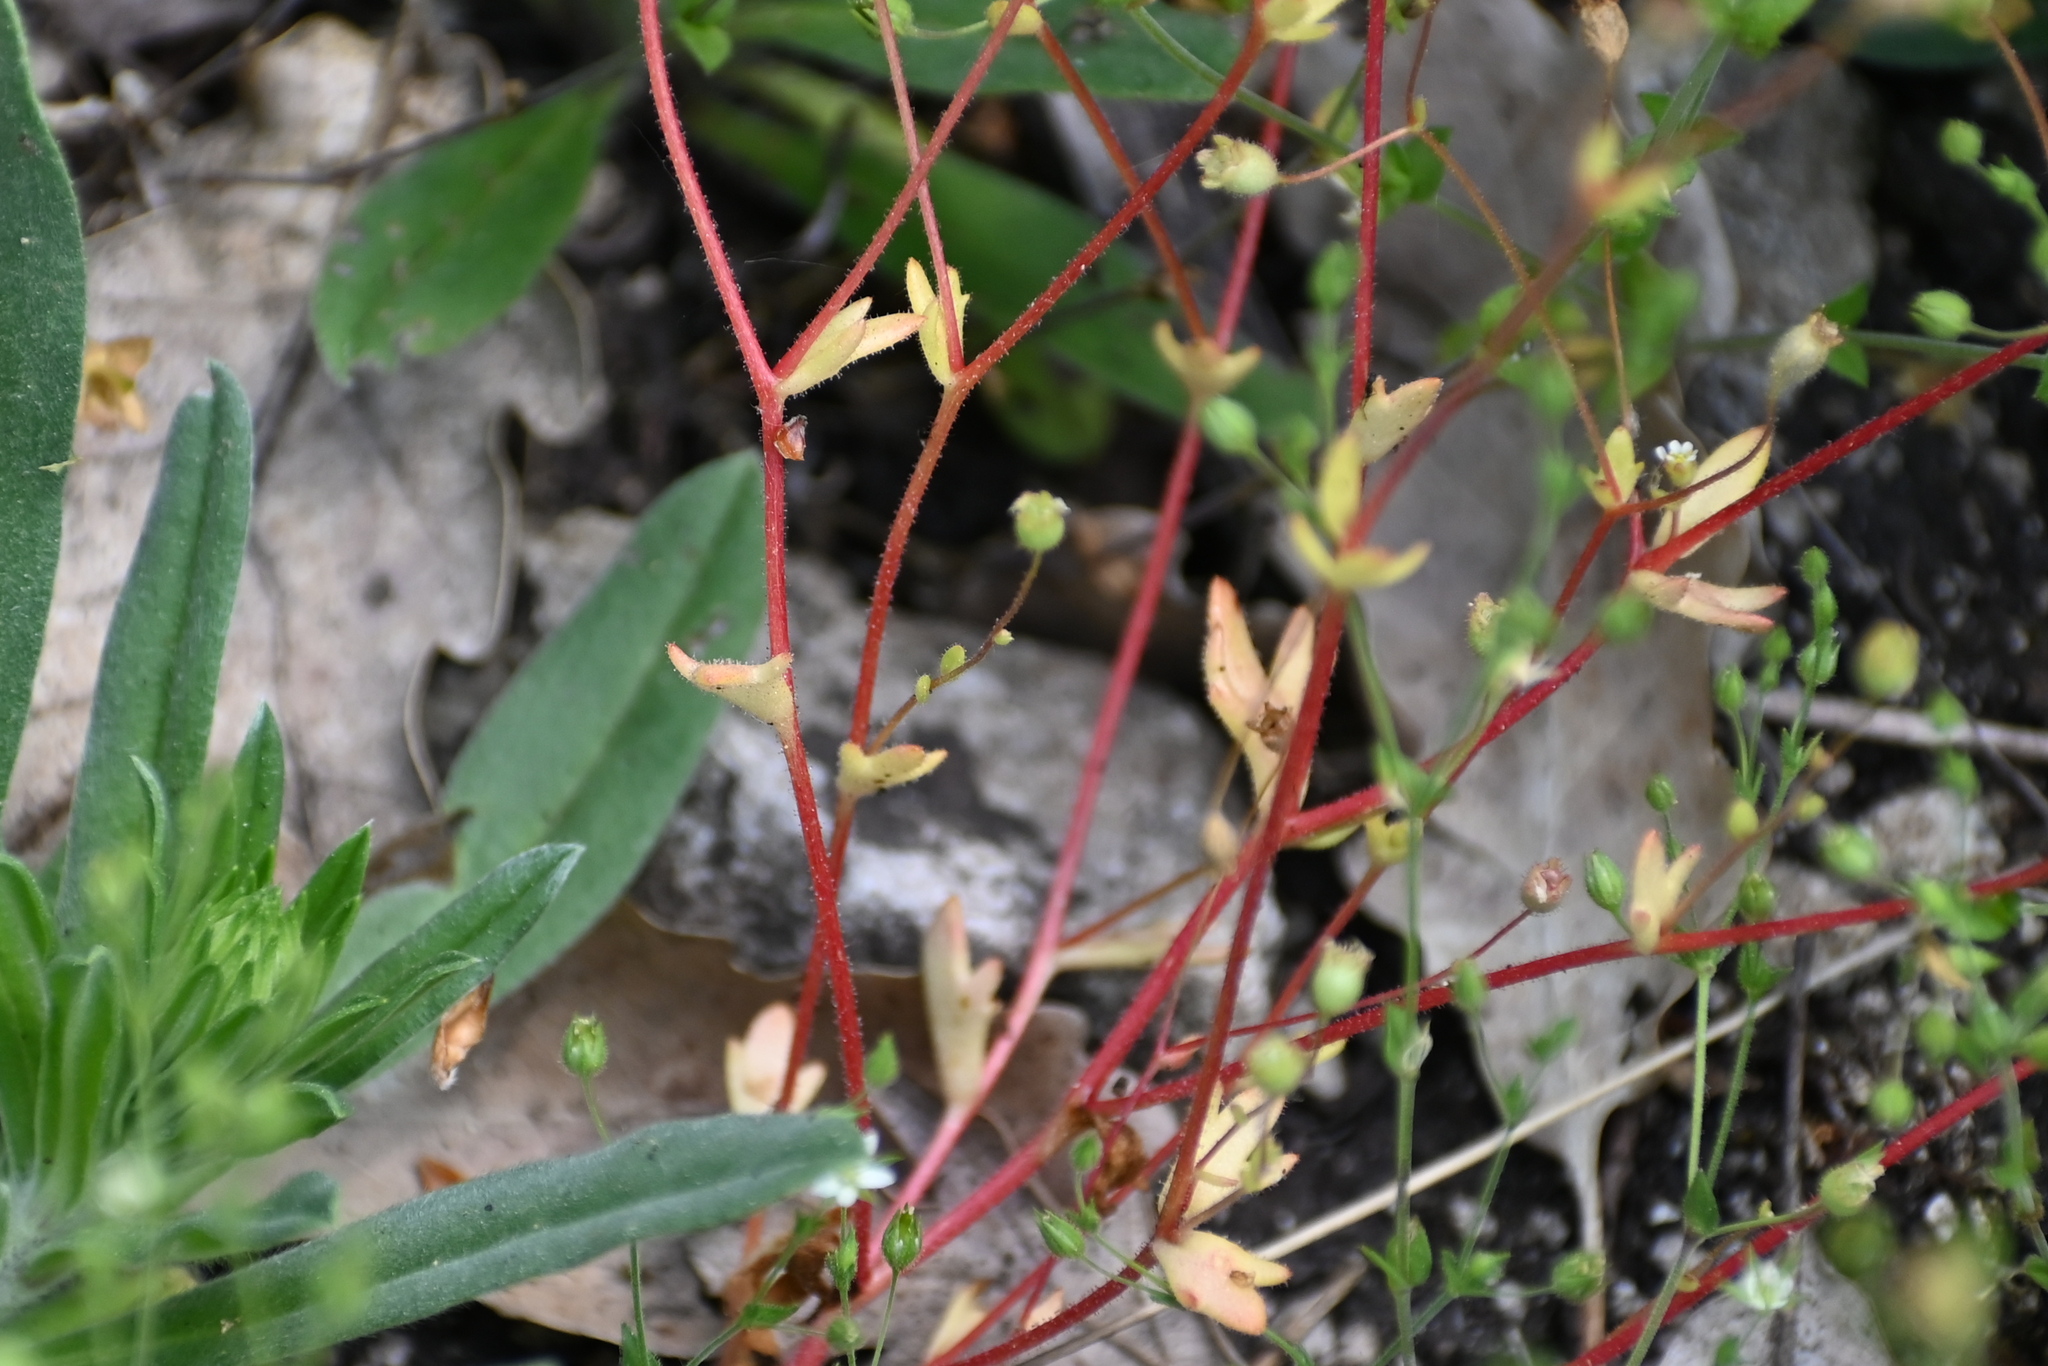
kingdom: Plantae
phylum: Tracheophyta
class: Magnoliopsida
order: Saxifragales
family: Saxifragaceae
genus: Saxifraga
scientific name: Saxifraga tridactylites
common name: Rue-leaved saxifrage
